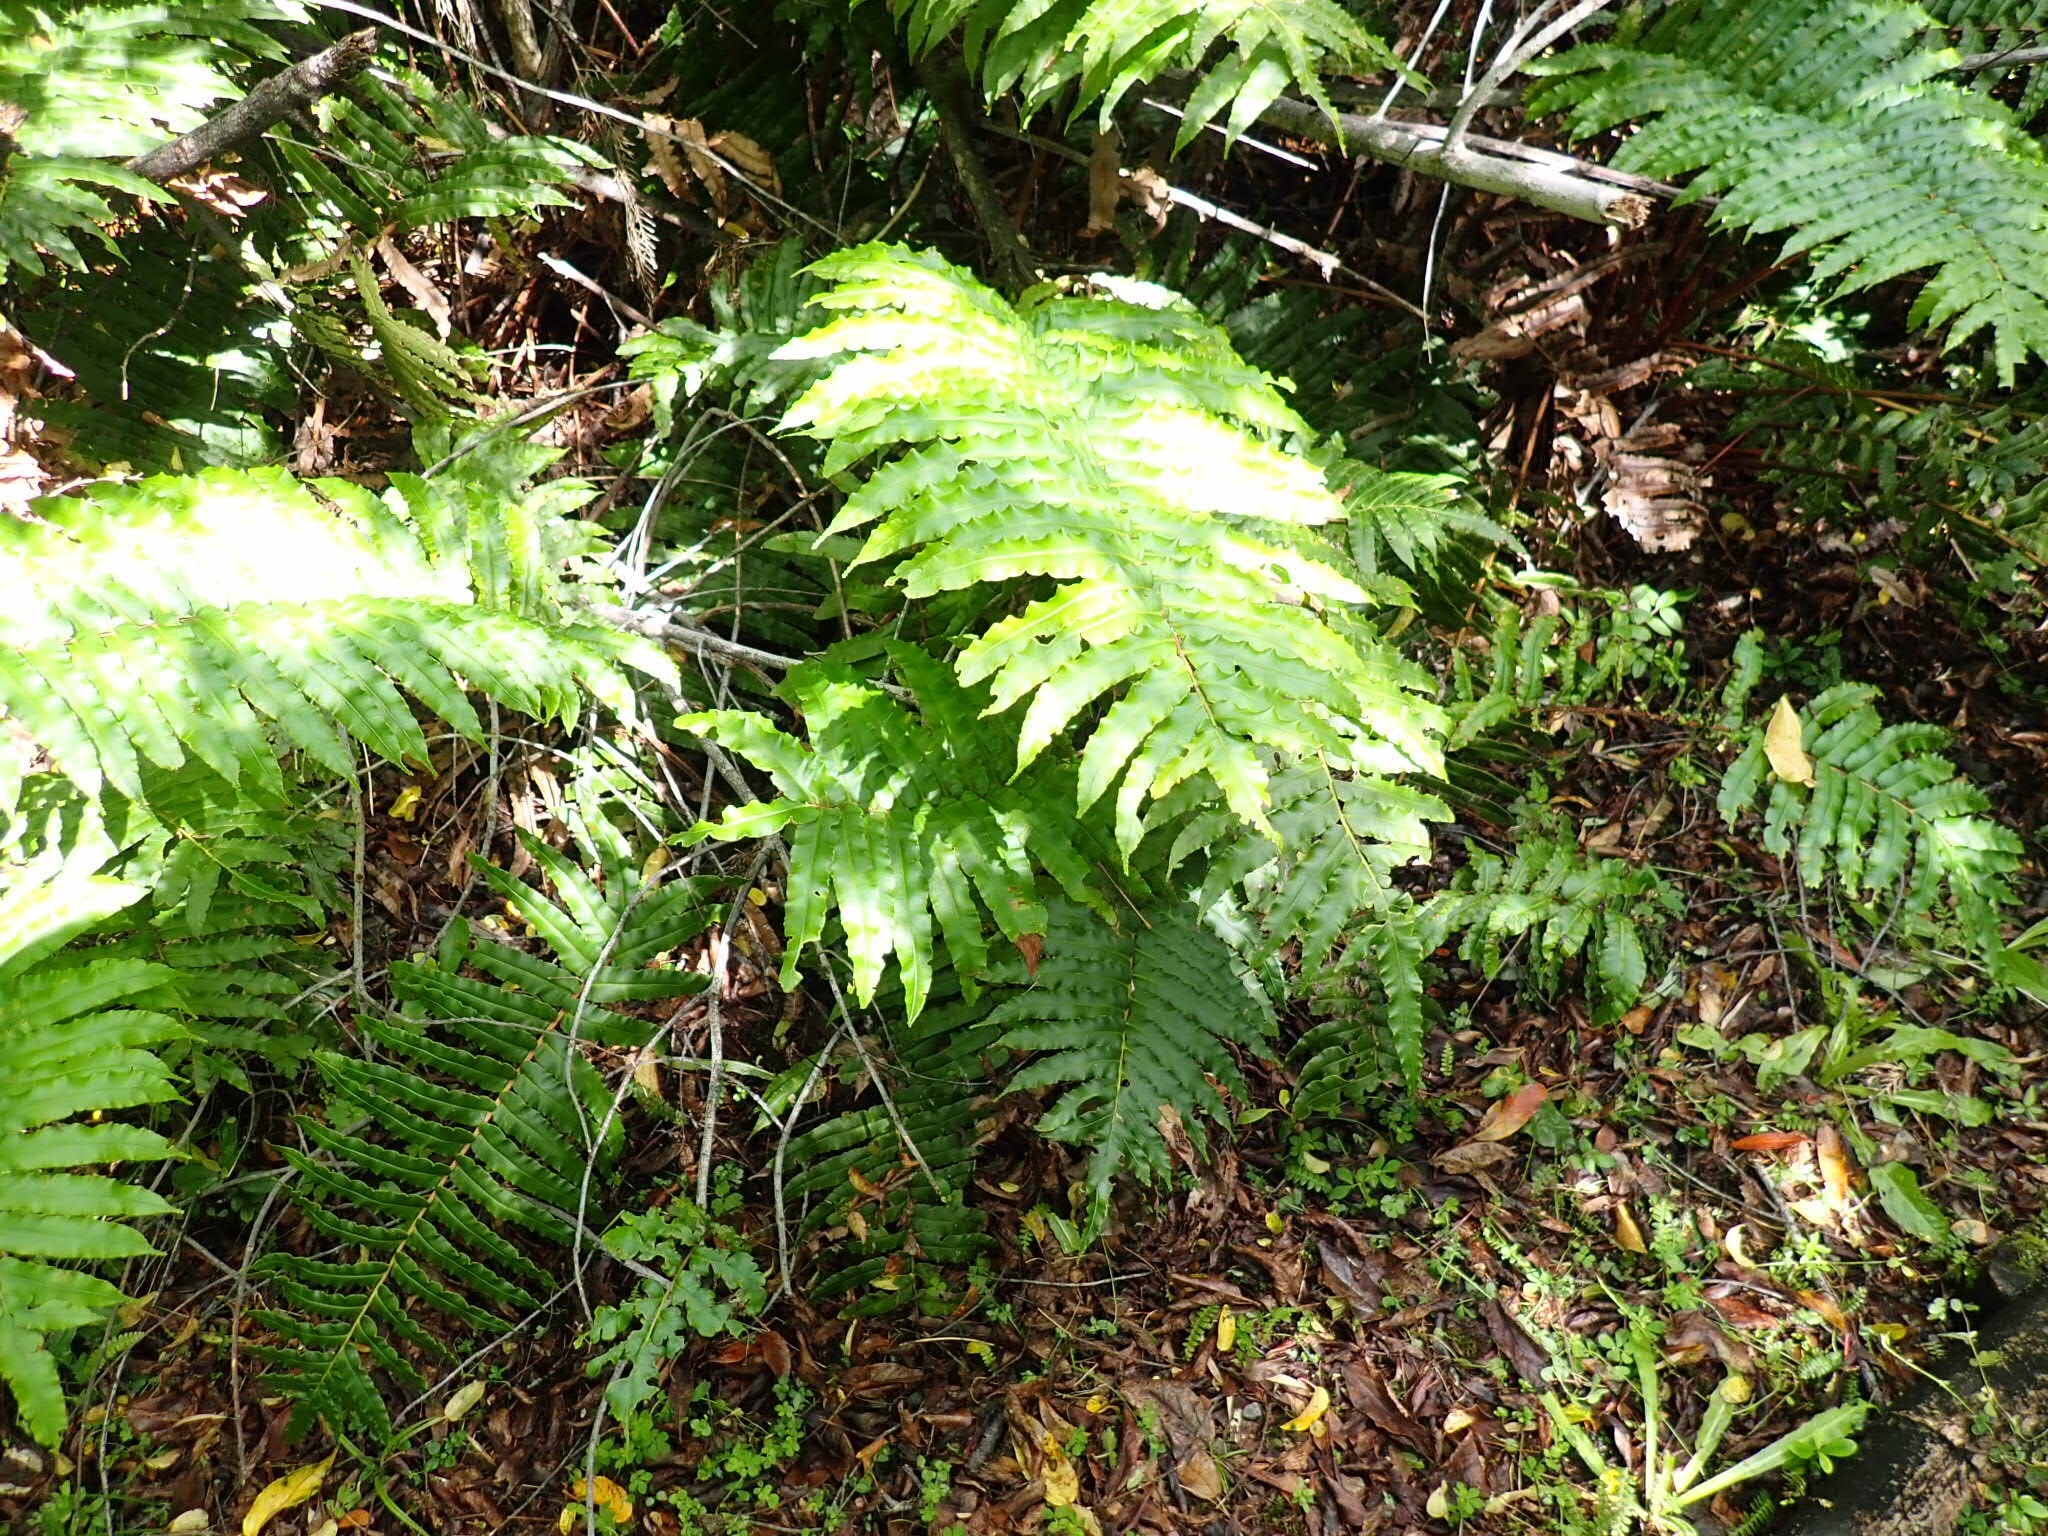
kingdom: Plantae
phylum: Tracheophyta
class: Polypodiopsida
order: Polypodiales
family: Blechnaceae
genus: Parablechnum
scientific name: Parablechnum chilense
